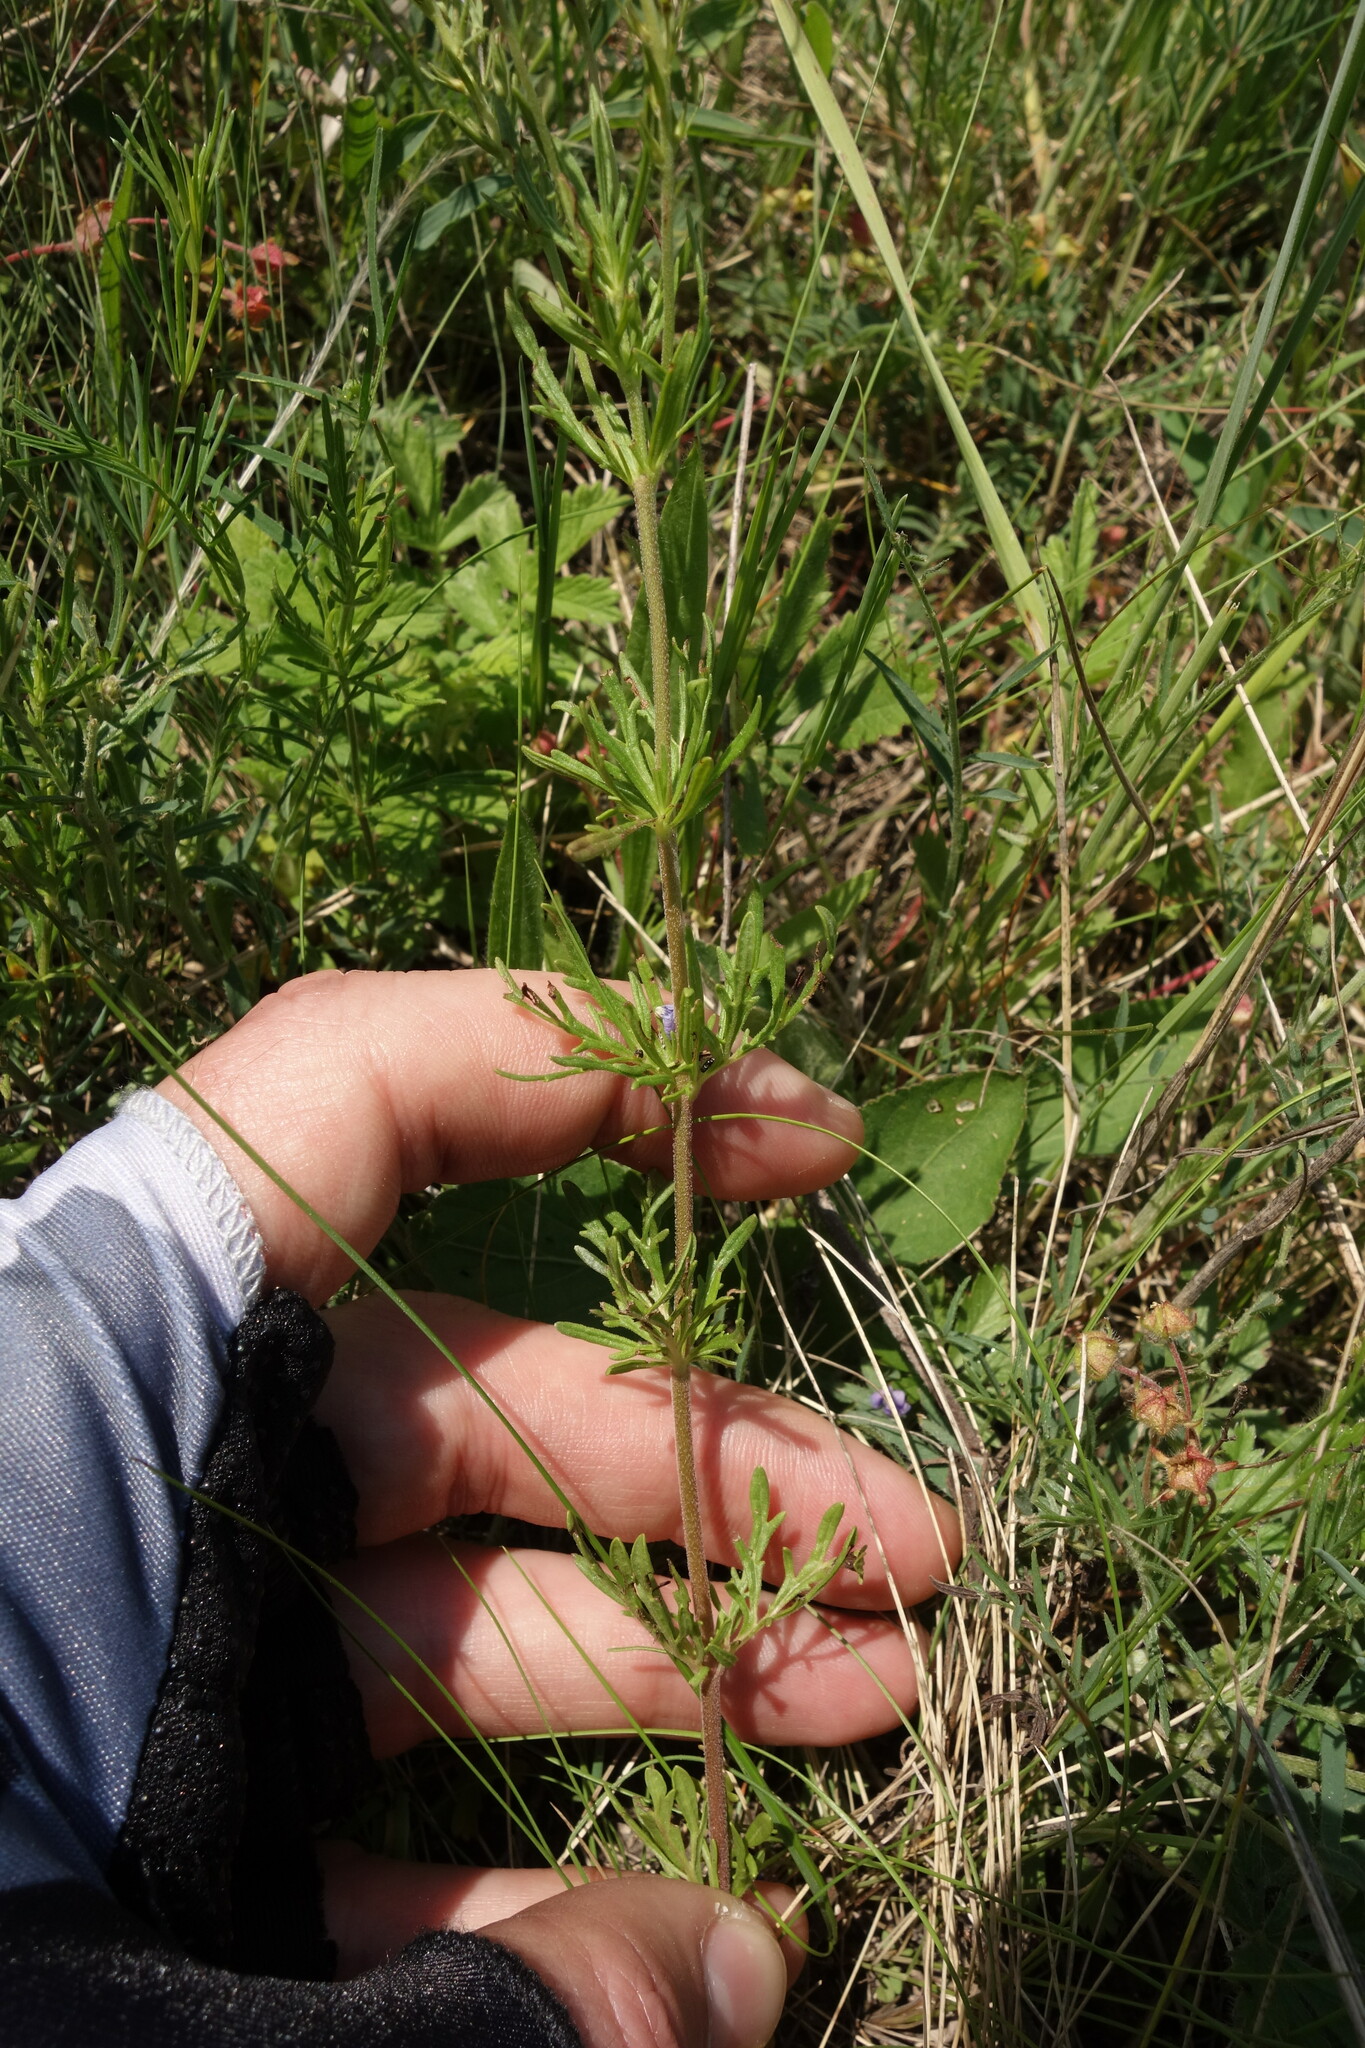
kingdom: Plantae
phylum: Tracheophyta
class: Magnoliopsida
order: Lamiales
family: Plantaginaceae
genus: Veronica
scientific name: Veronica austriaca
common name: Large speedwell
